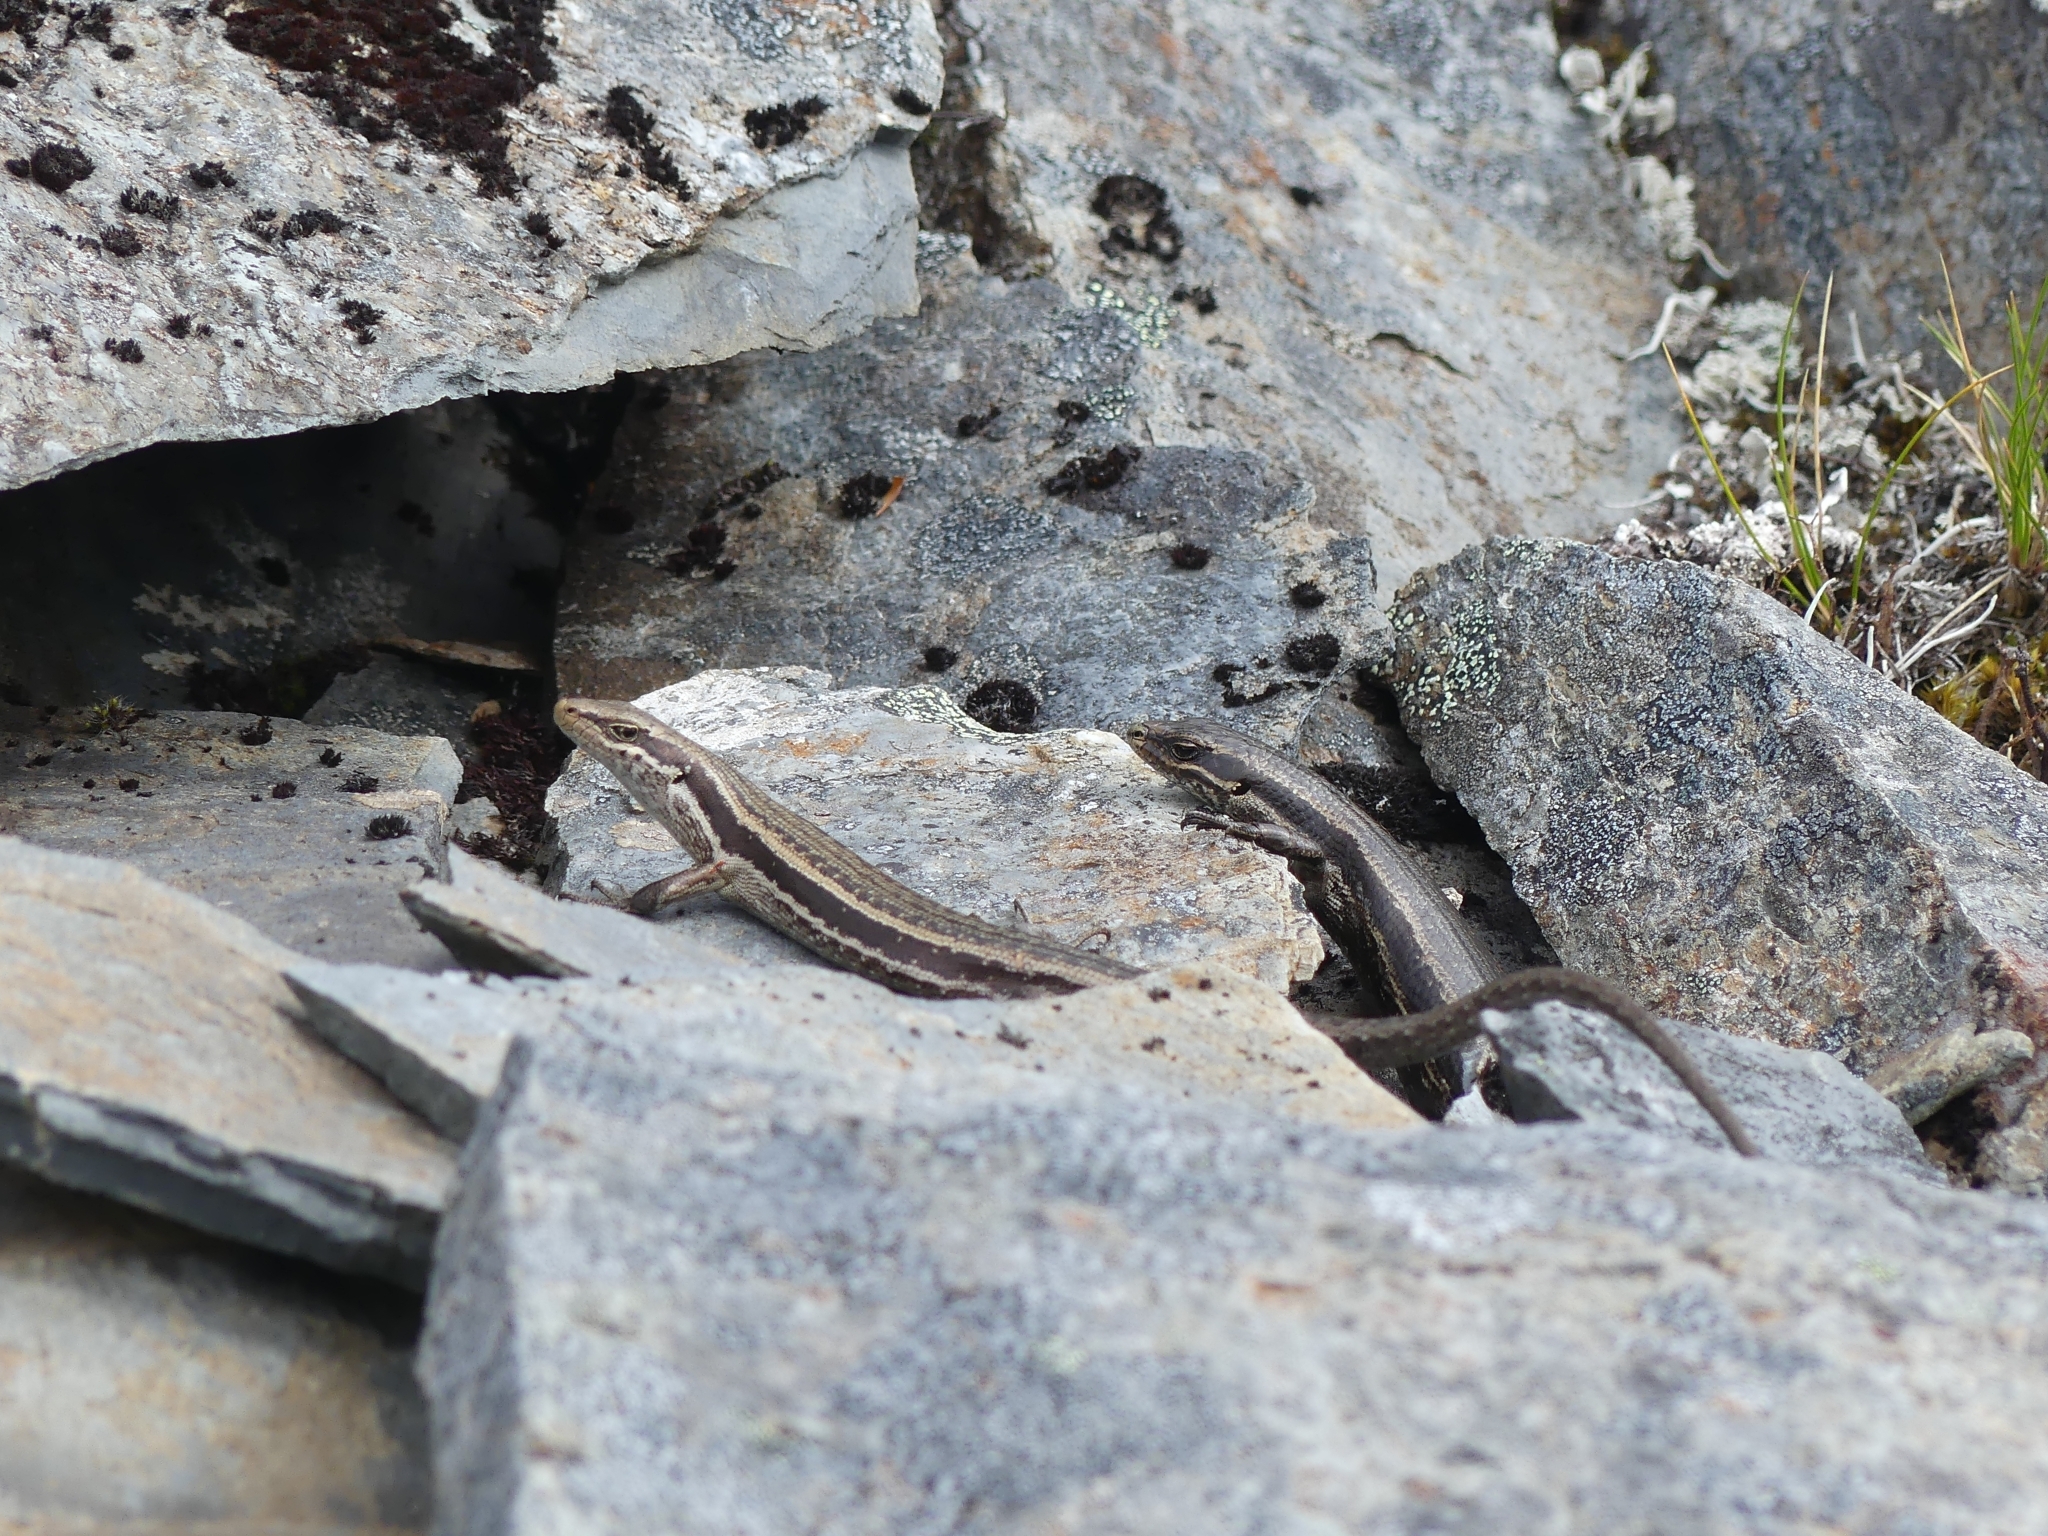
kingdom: Animalia
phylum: Chordata
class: Squamata
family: Scincidae
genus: Oligosoma
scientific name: Oligosoma kahurangi
